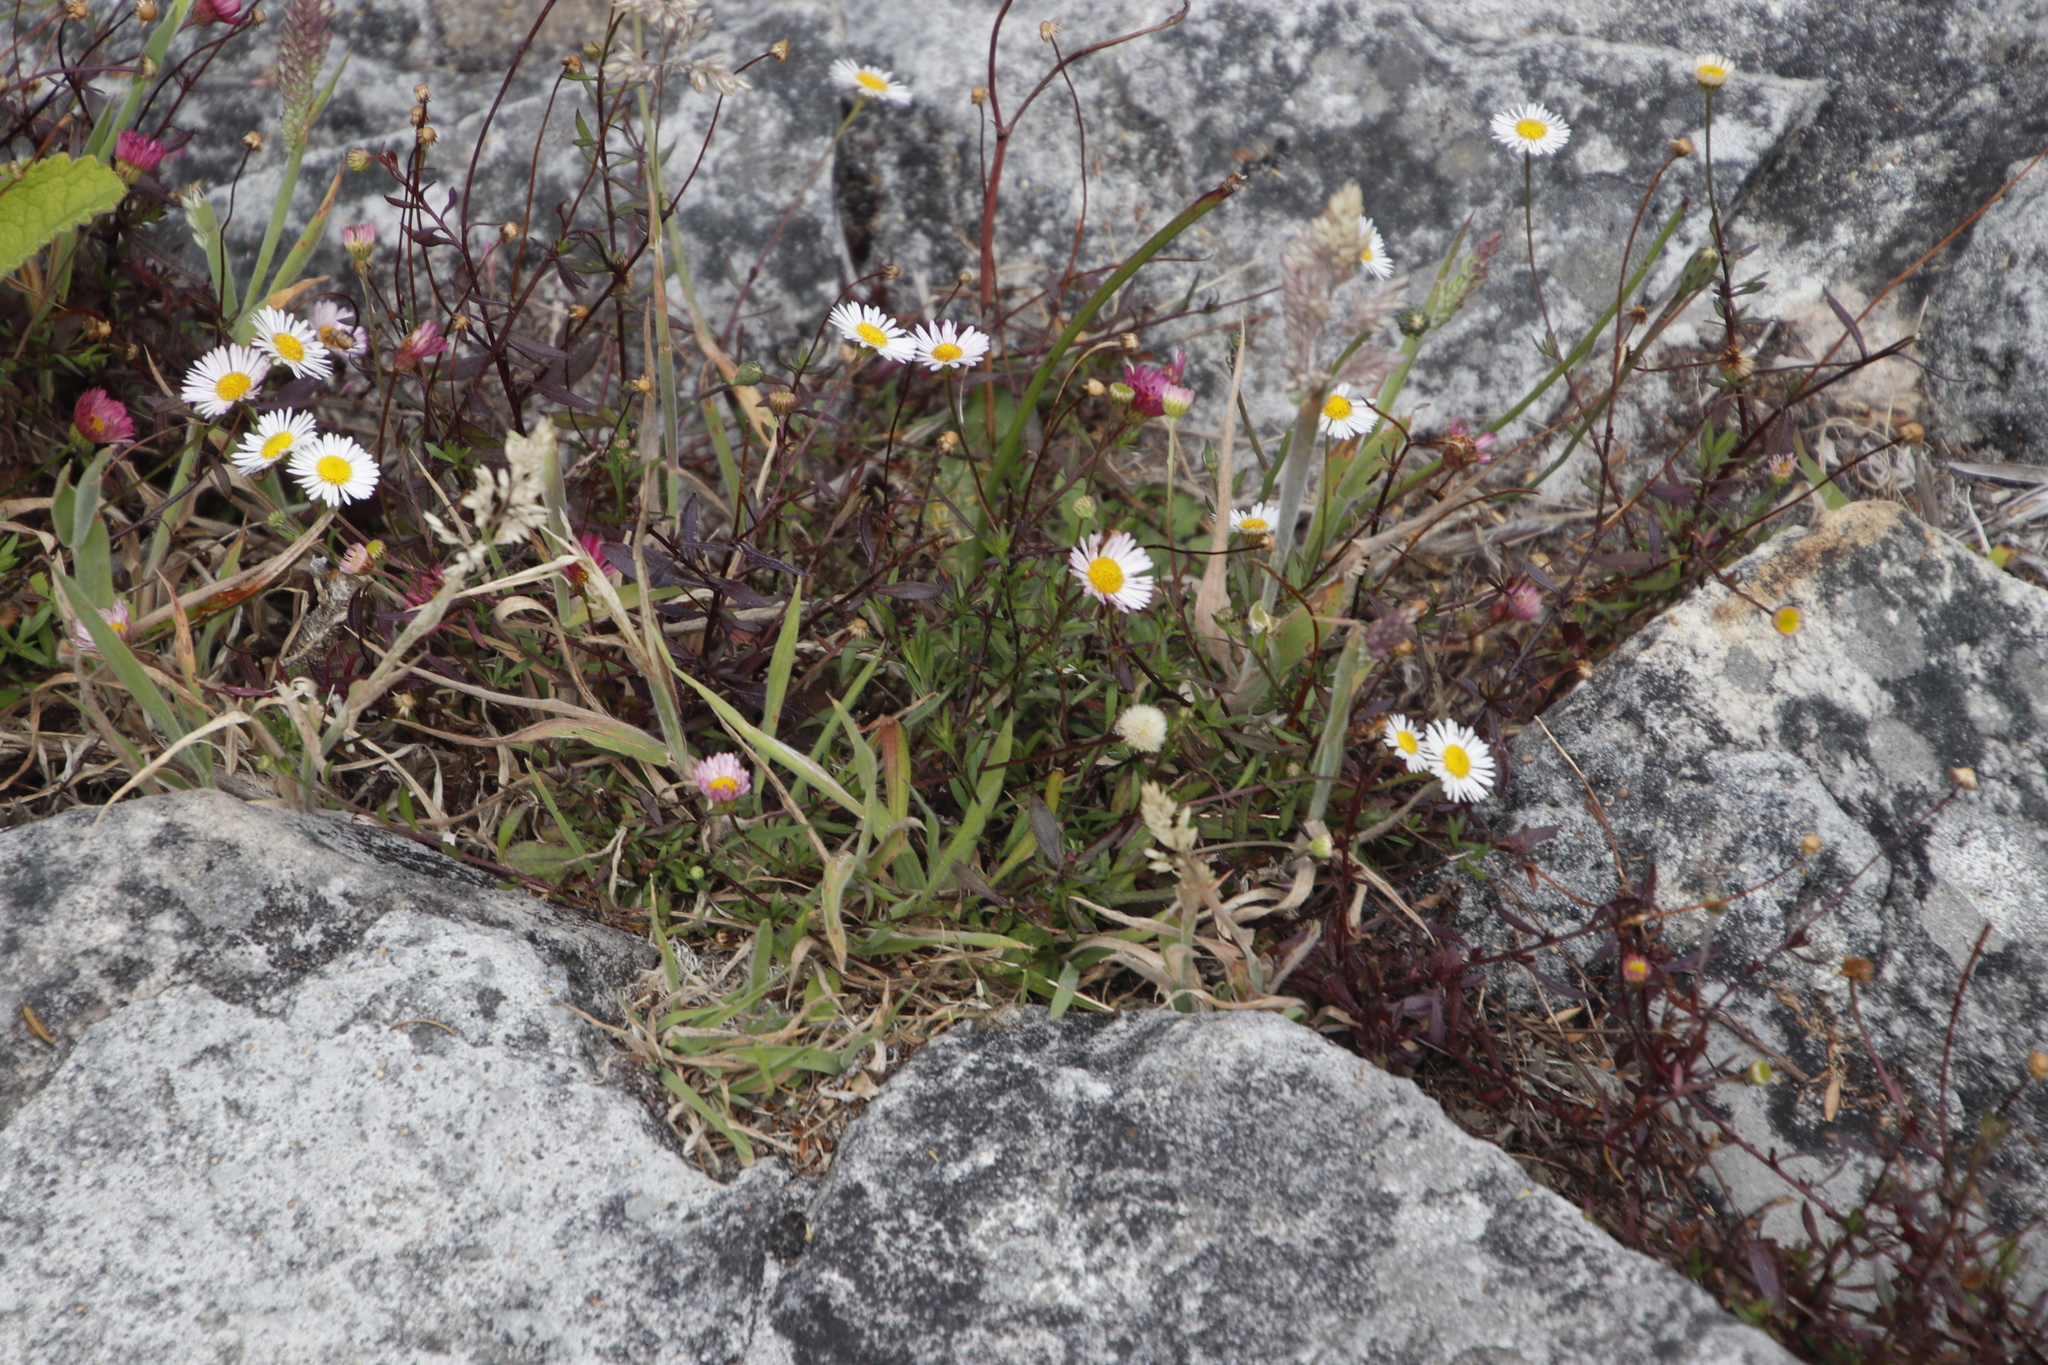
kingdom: Plantae
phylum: Tracheophyta
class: Magnoliopsida
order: Asterales
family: Asteraceae
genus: Erigeron
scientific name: Erigeron karvinskianus
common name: Mexican fleabane
